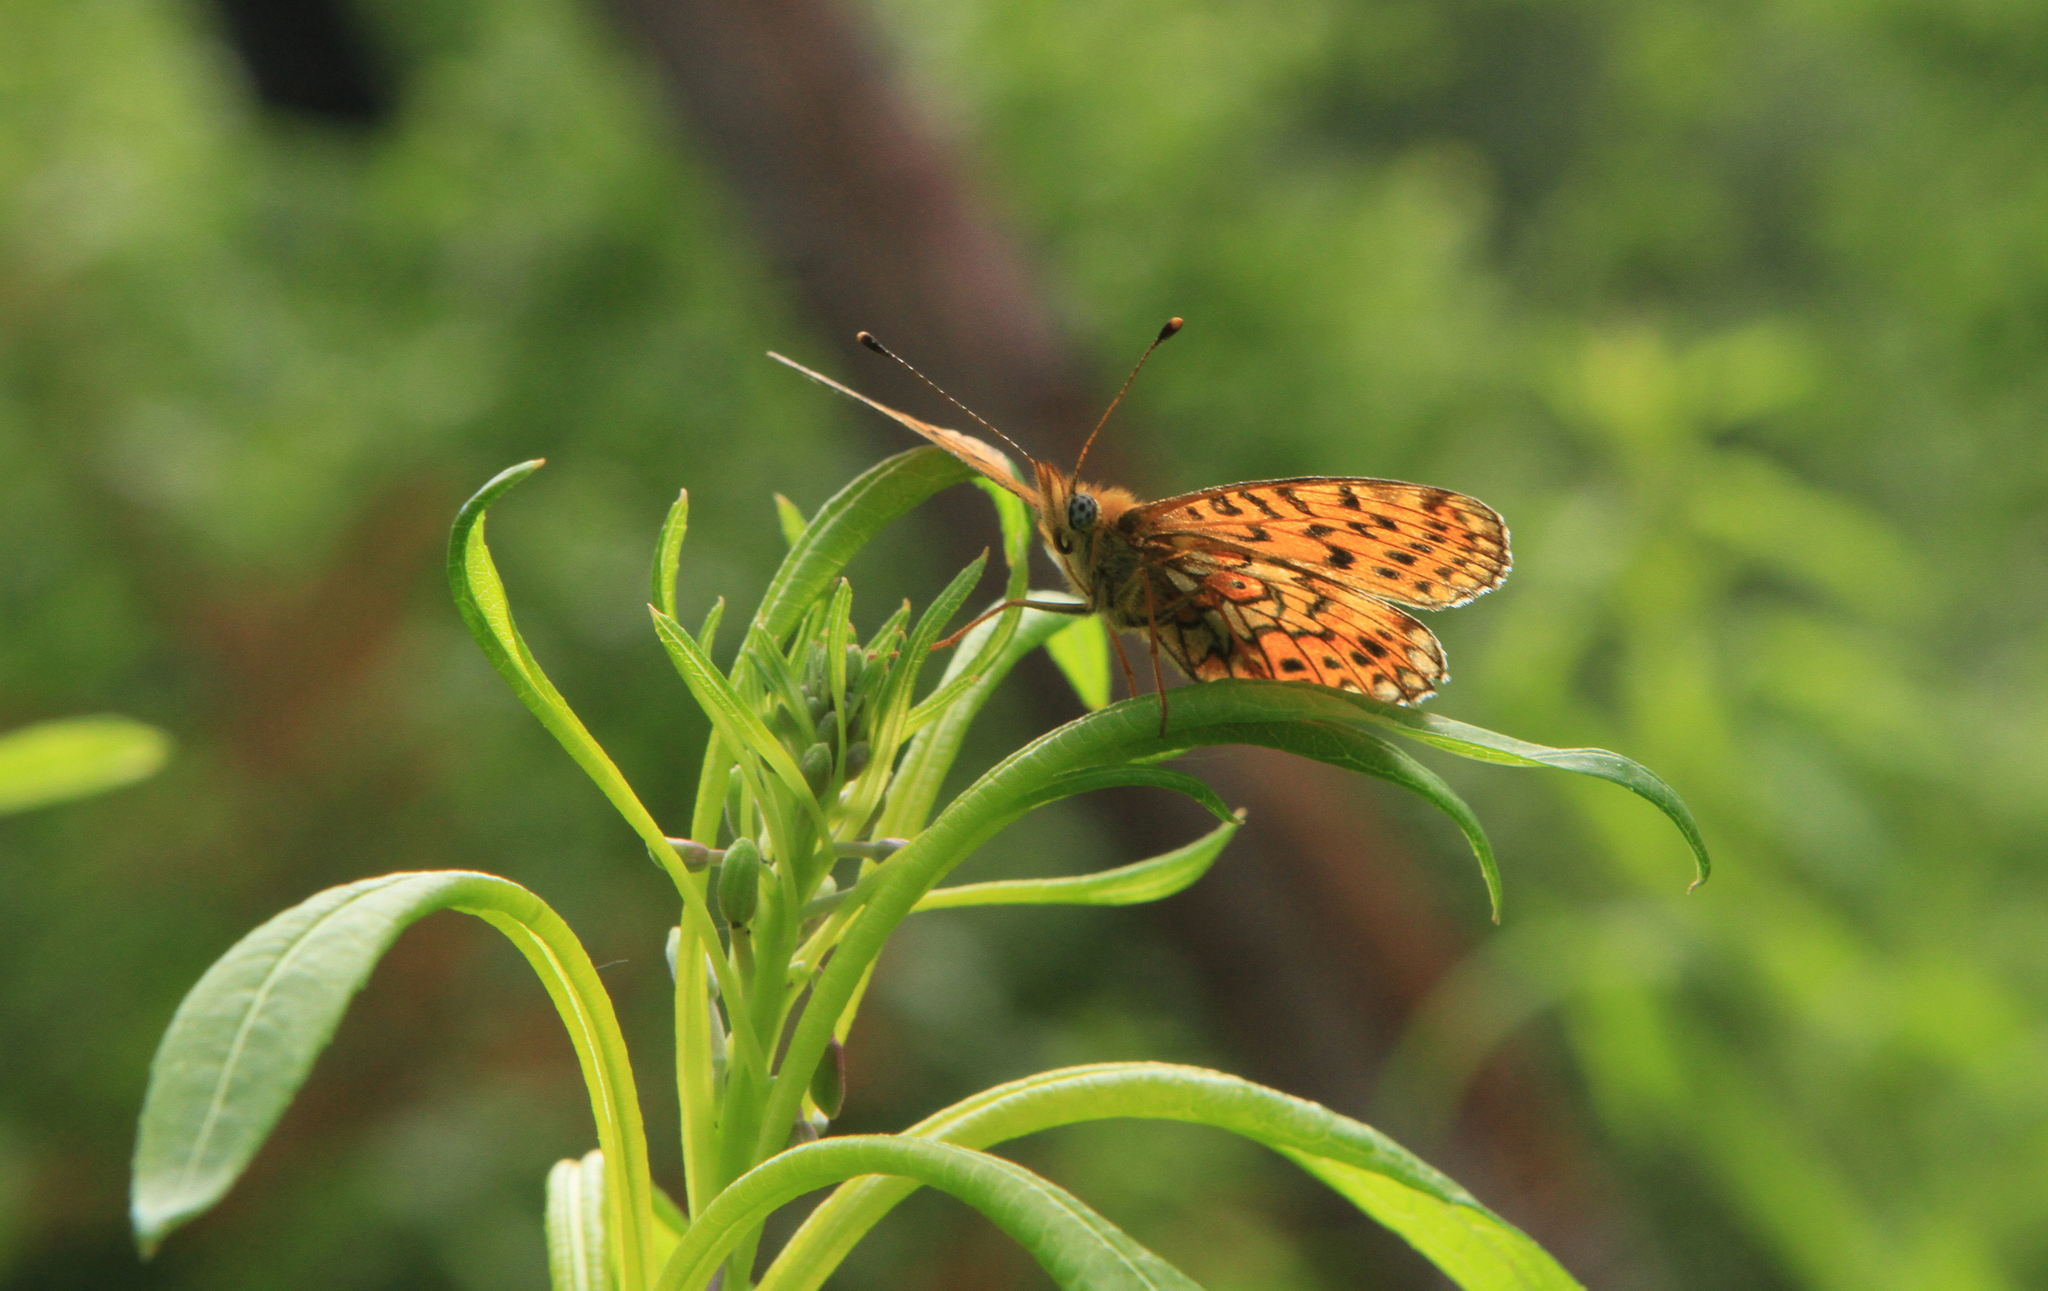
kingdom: Animalia
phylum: Arthropoda
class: Insecta
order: Lepidoptera
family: Nymphalidae
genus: Clossiana
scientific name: Clossiana euphrosyne
